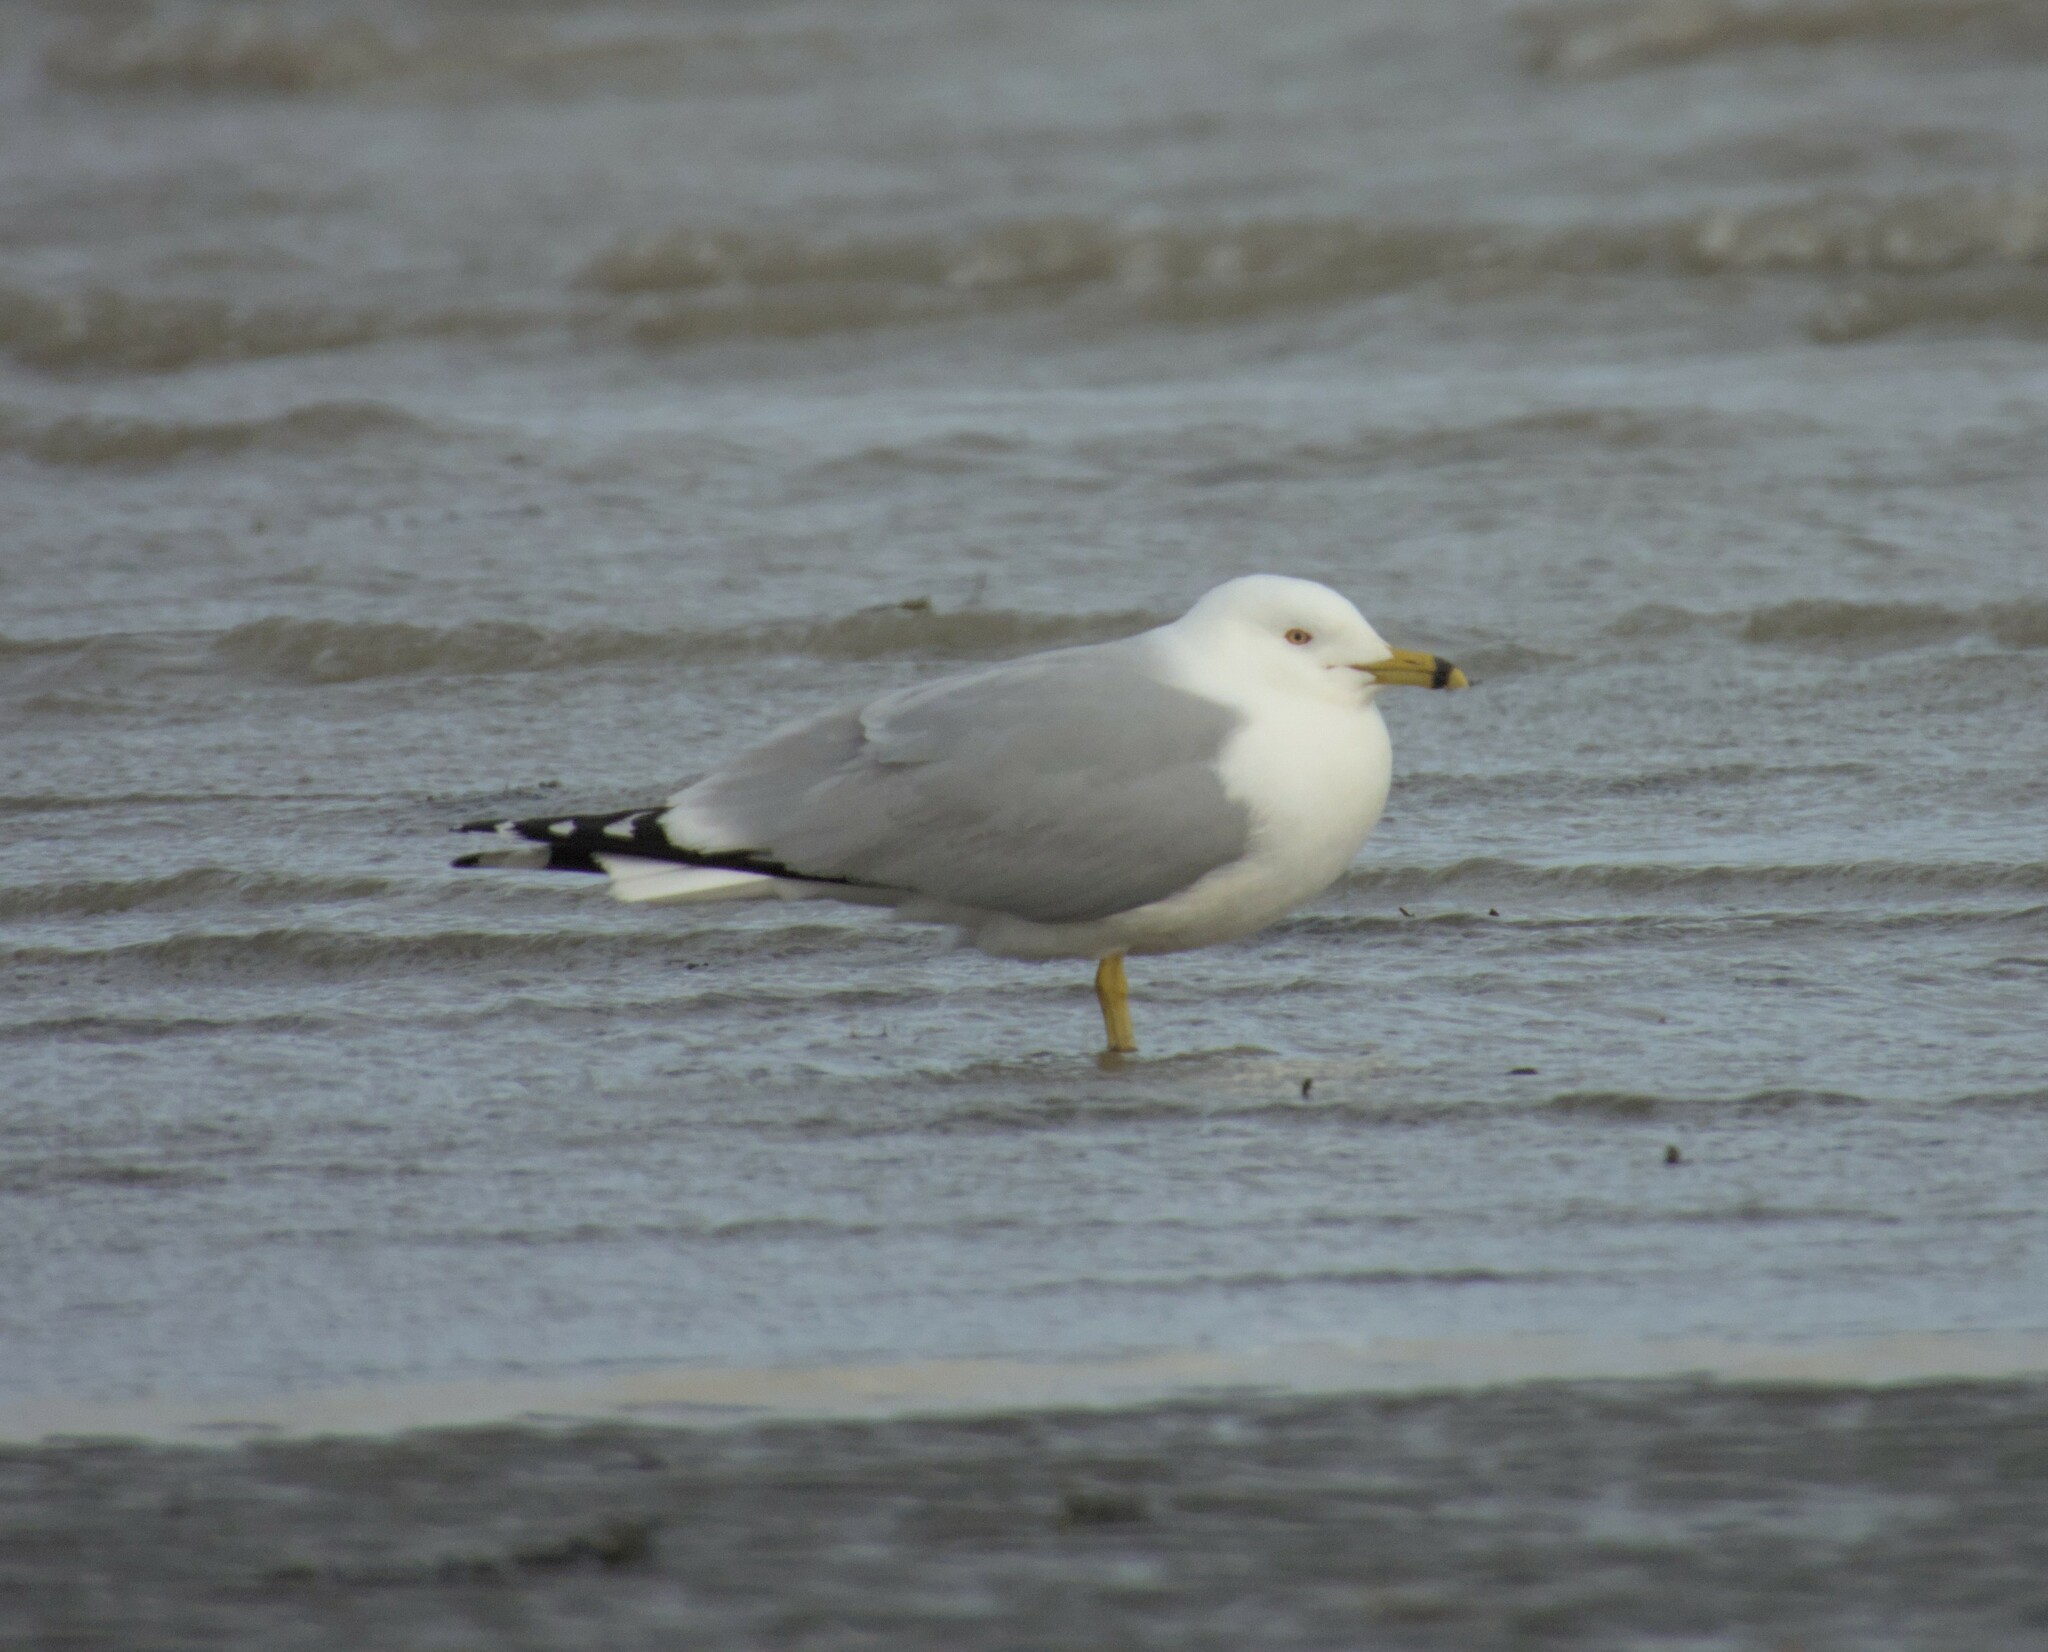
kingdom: Animalia
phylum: Chordata
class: Aves
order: Charadriiformes
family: Laridae
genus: Larus
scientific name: Larus delawarensis
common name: Ring-billed gull
